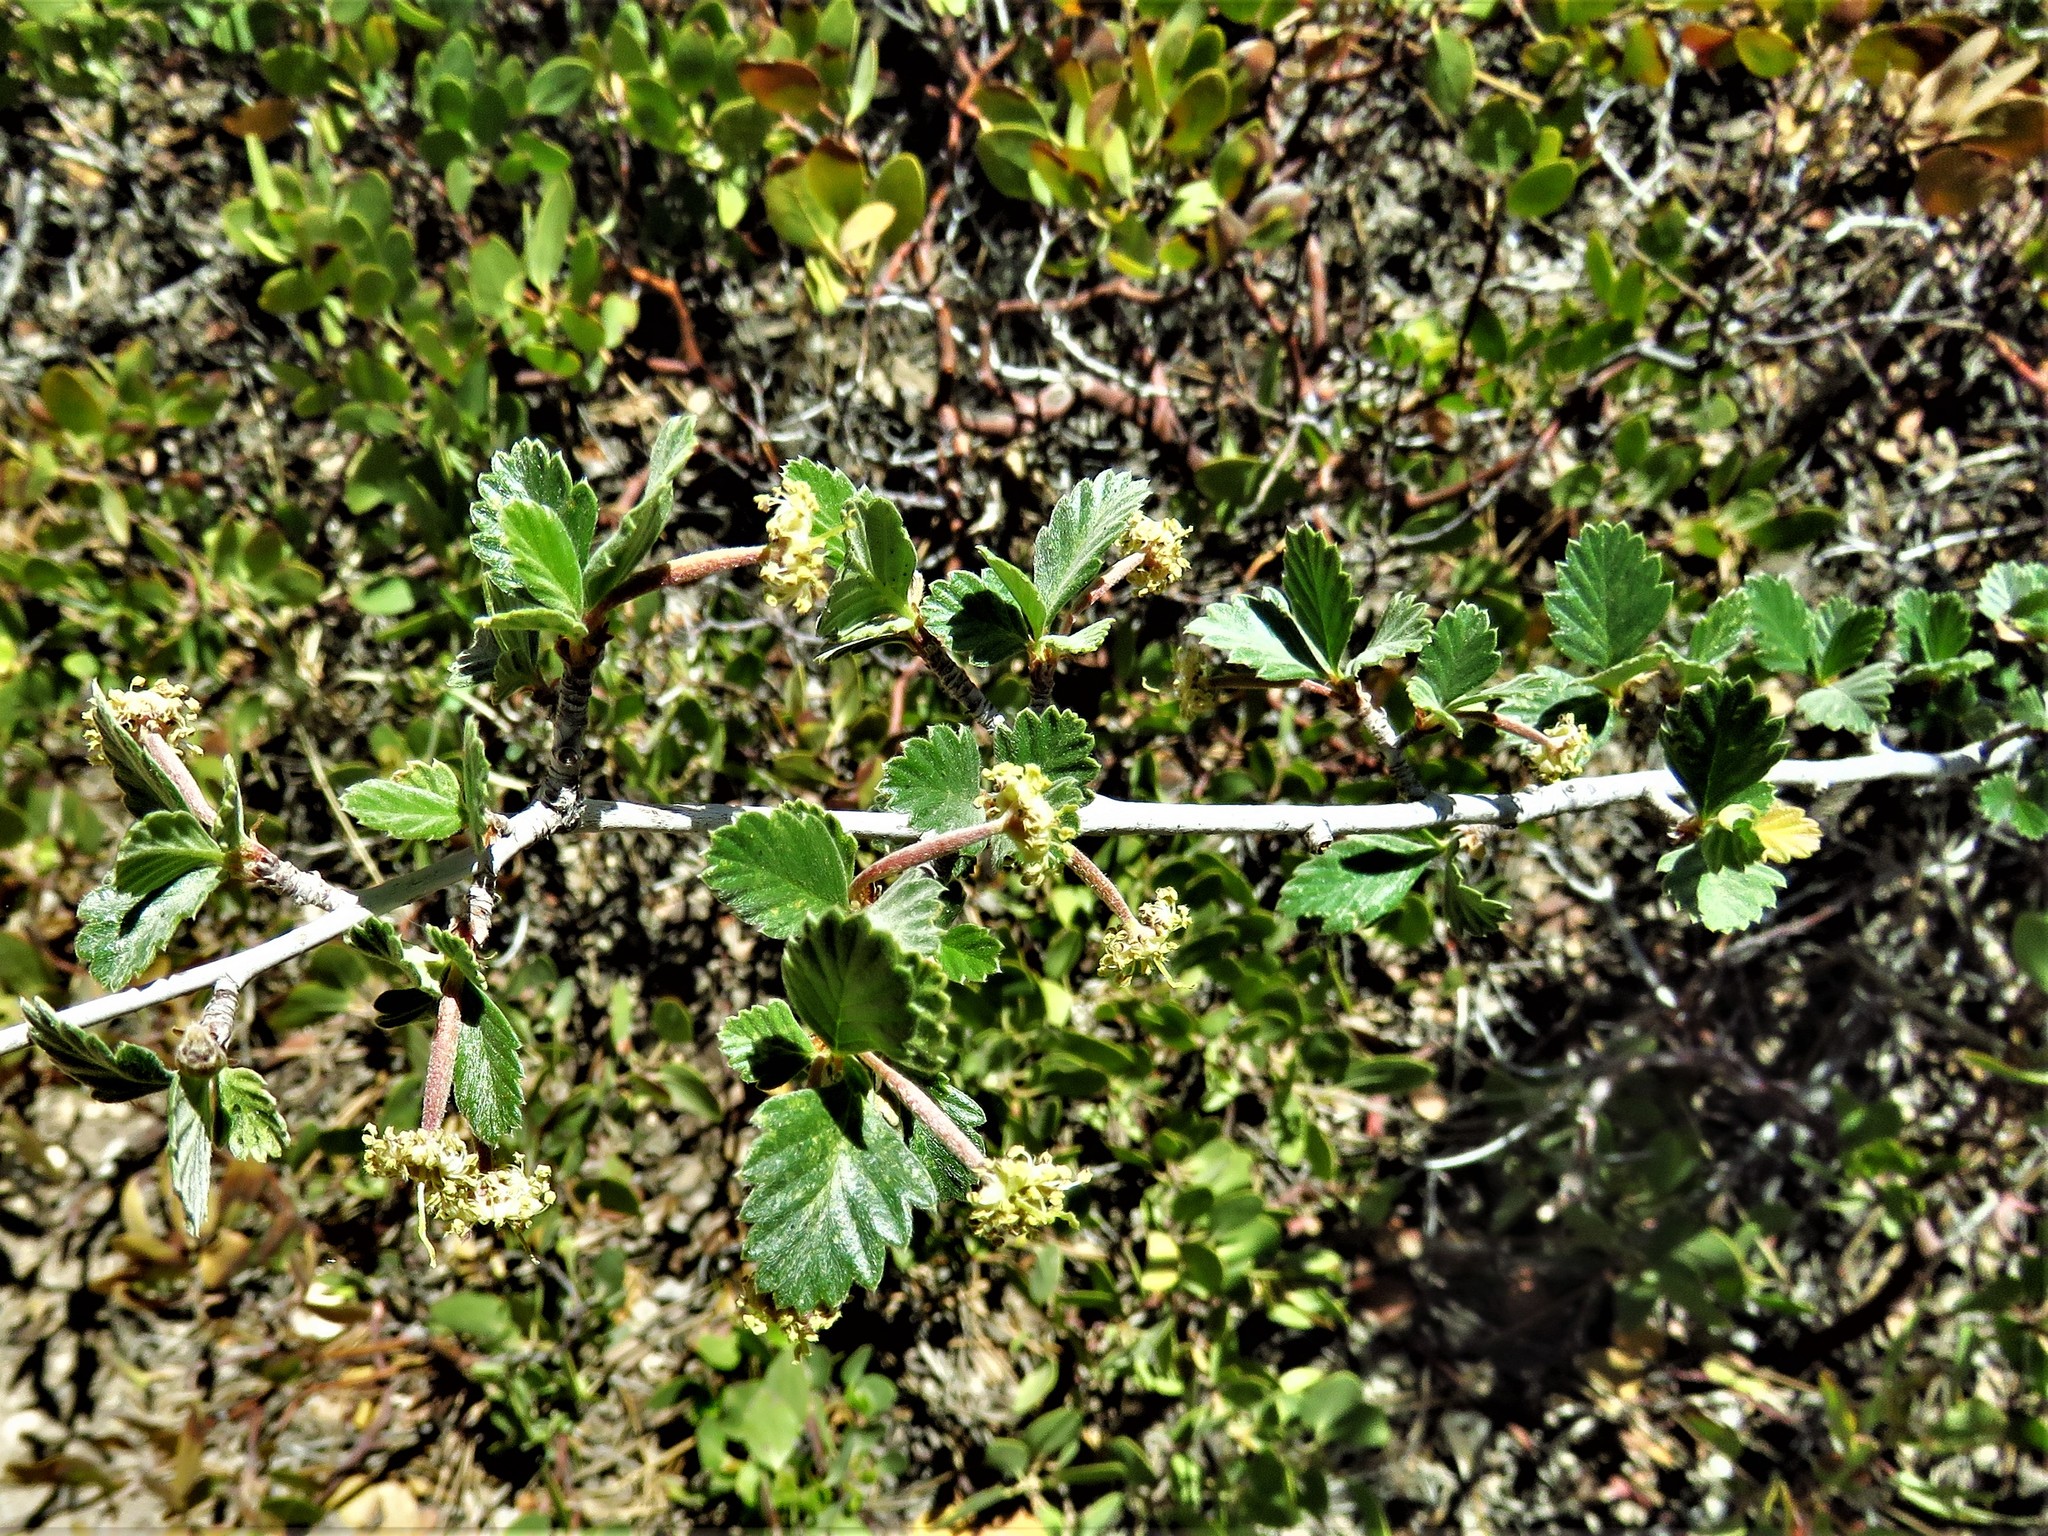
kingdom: Plantae
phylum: Tracheophyta
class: Magnoliopsida
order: Rosales
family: Rosaceae
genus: Cercocarpus
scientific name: Cercocarpus montanus
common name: Alder-leaf cercocarpus
